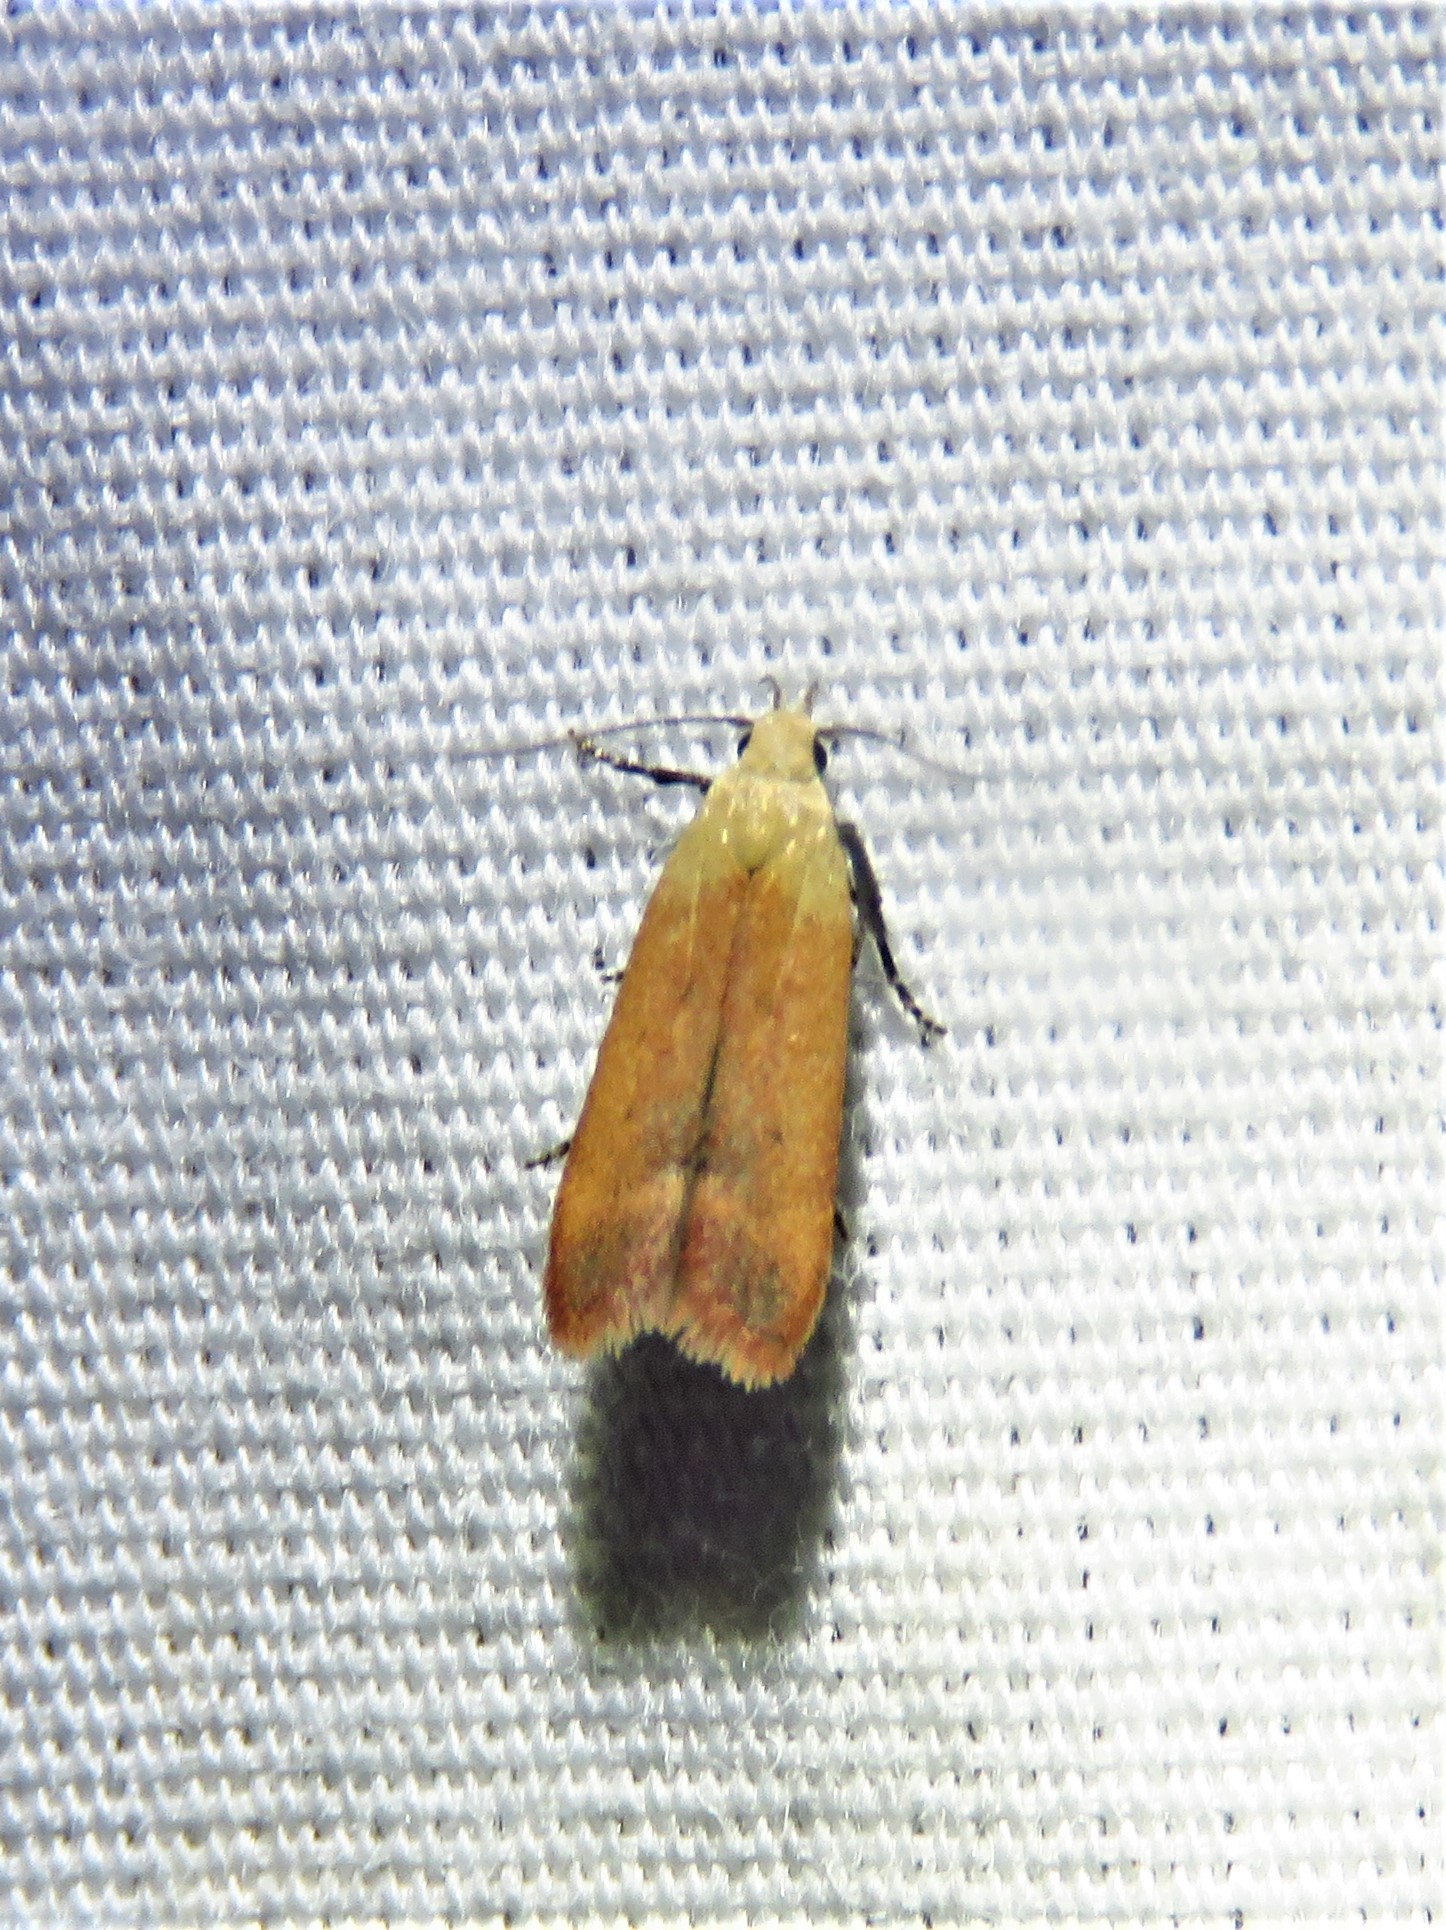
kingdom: Animalia
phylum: Arthropoda
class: Insecta
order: Lepidoptera
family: Gelechiidae
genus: Anacampsis
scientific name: Anacampsis fullonella
